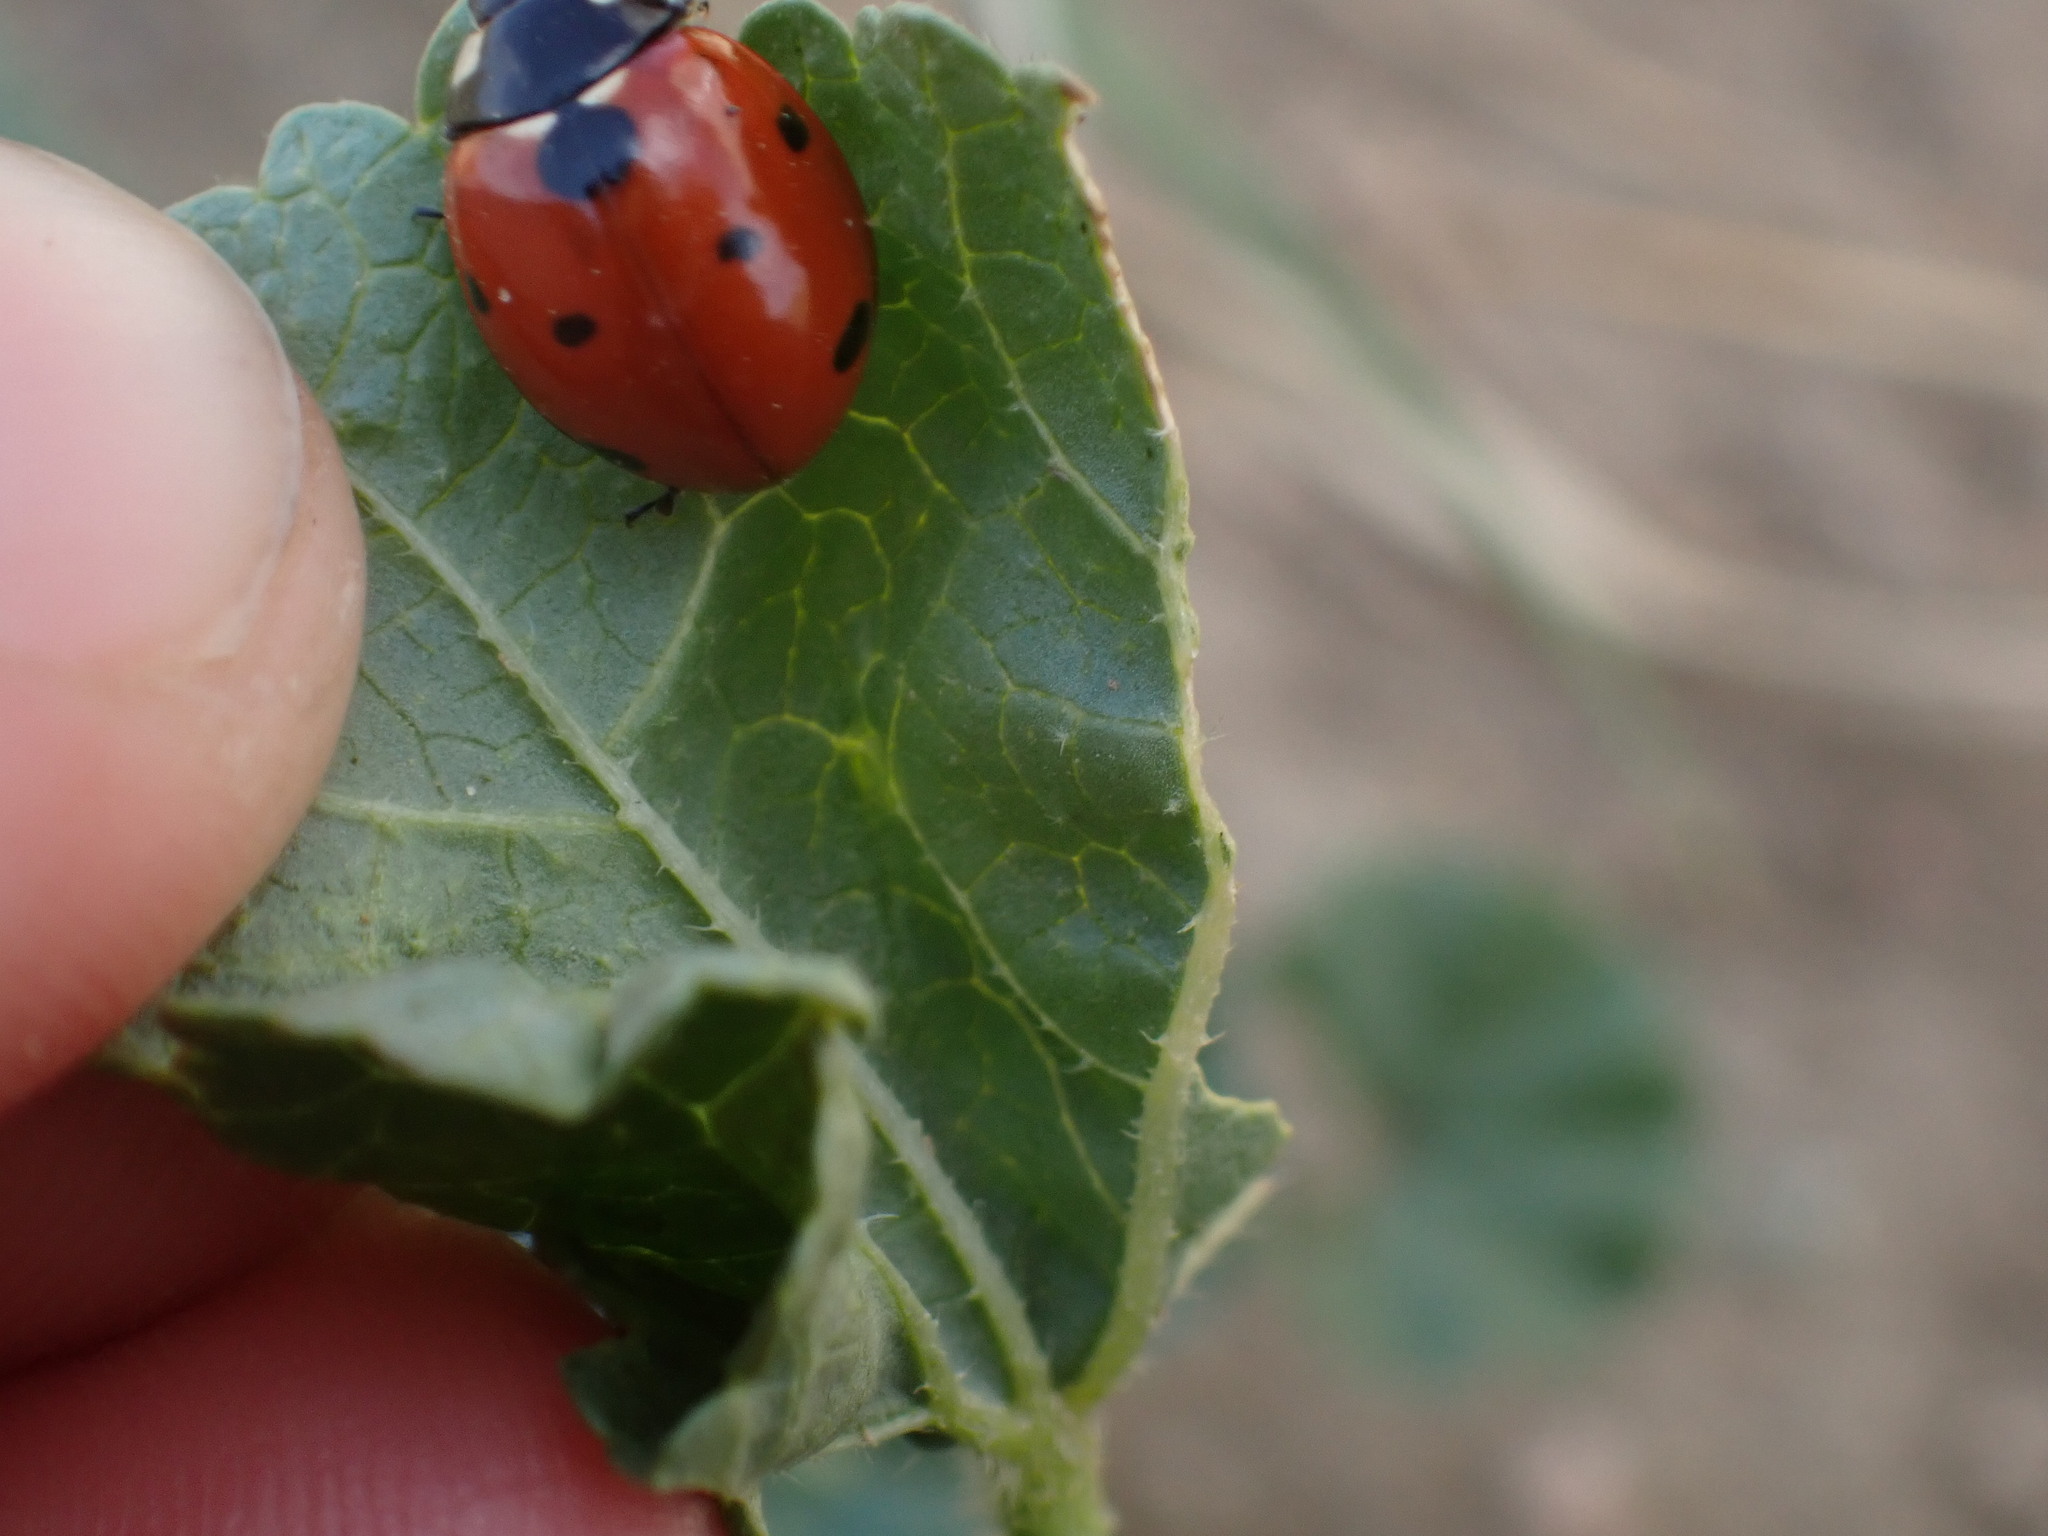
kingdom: Animalia
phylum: Arthropoda
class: Insecta
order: Coleoptera
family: Coccinellidae
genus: Coccinella
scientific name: Coccinella septempunctata
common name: Sevenspotted lady beetle
